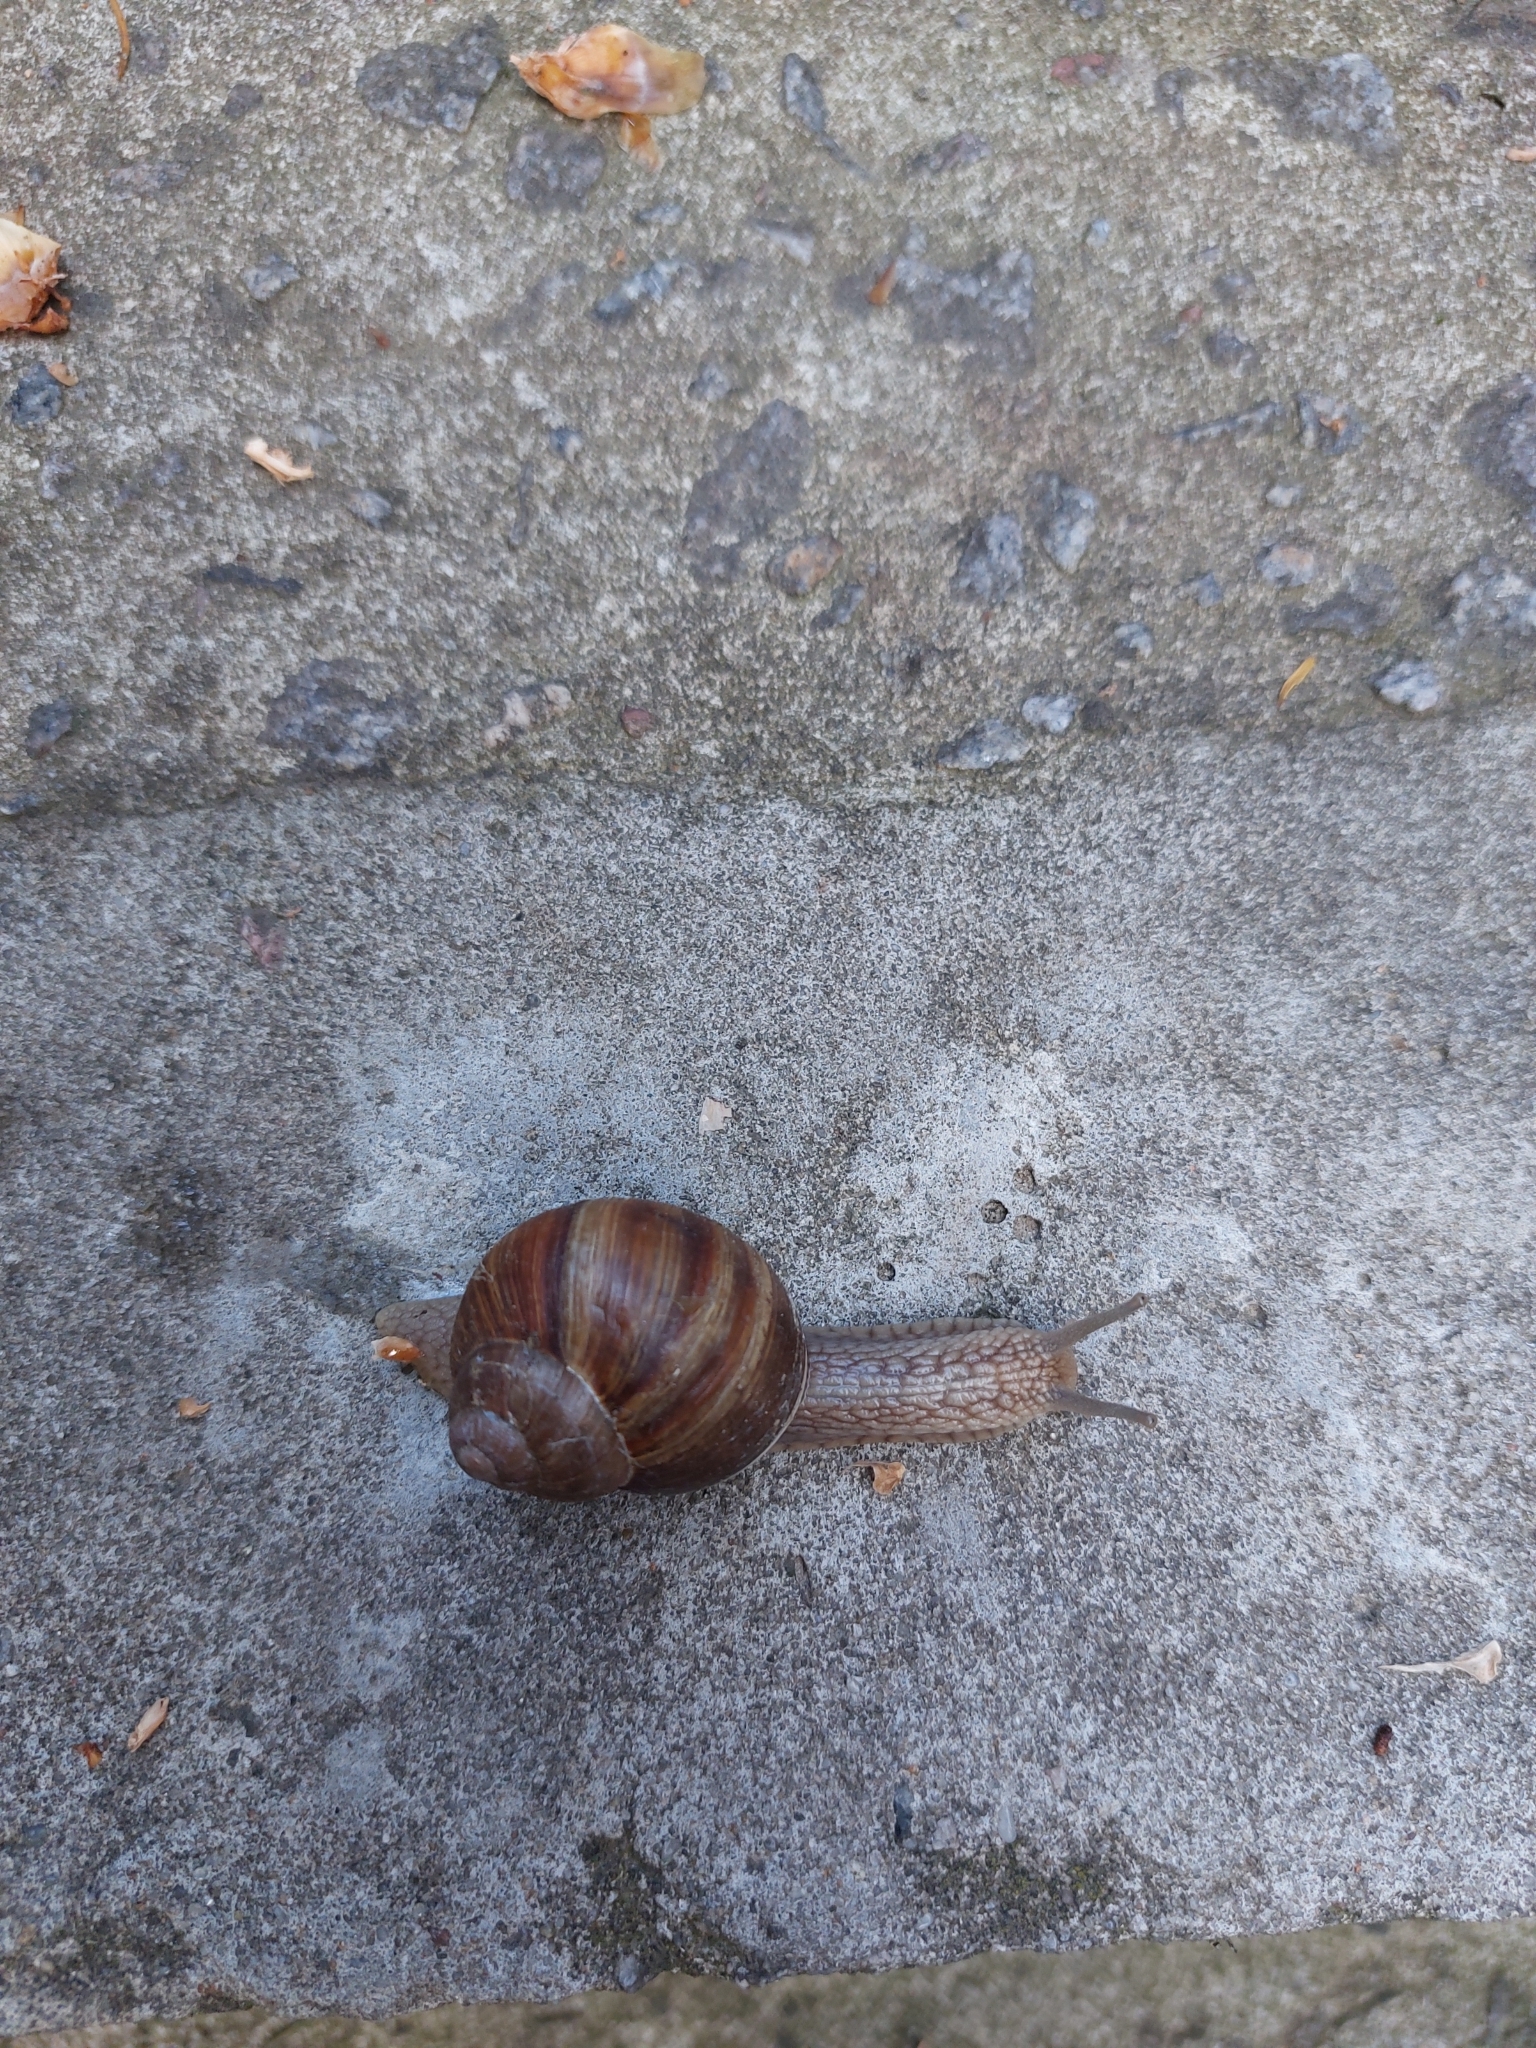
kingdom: Animalia
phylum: Mollusca
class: Gastropoda
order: Stylommatophora
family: Helicidae
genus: Helix
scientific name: Helix pomatia
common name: Roman snail
